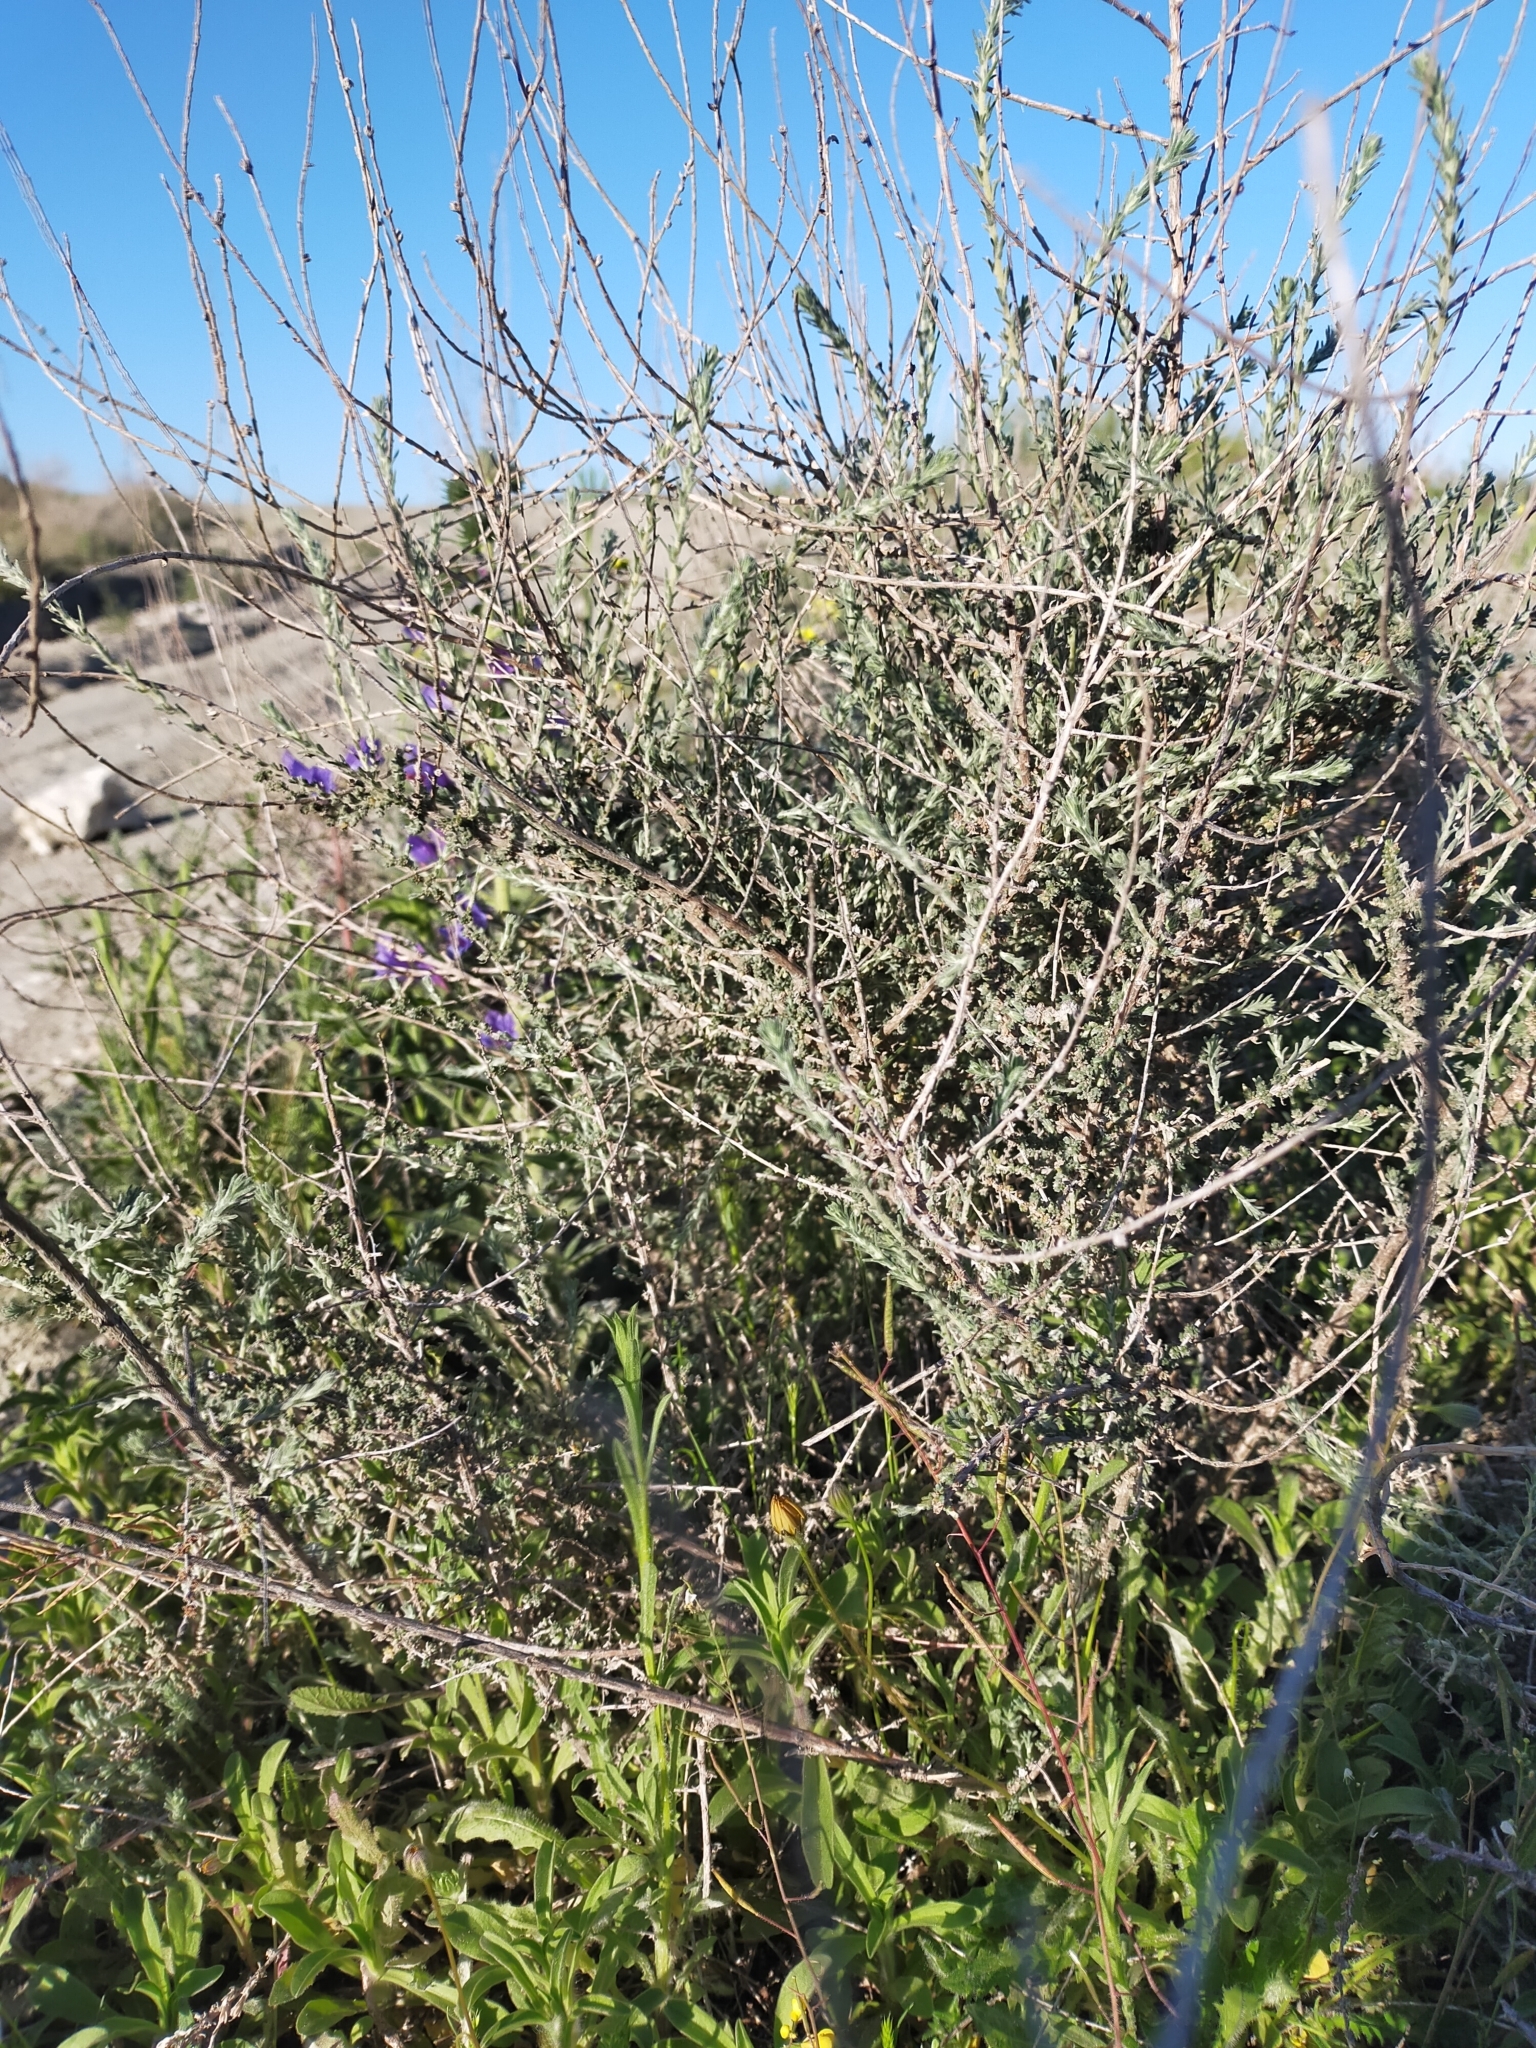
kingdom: Plantae
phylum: Tracheophyta
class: Magnoliopsida
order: Caryophyllales
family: Amaranthaceae
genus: Nitrosalsola
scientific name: Nitrosalsola vermiculata
